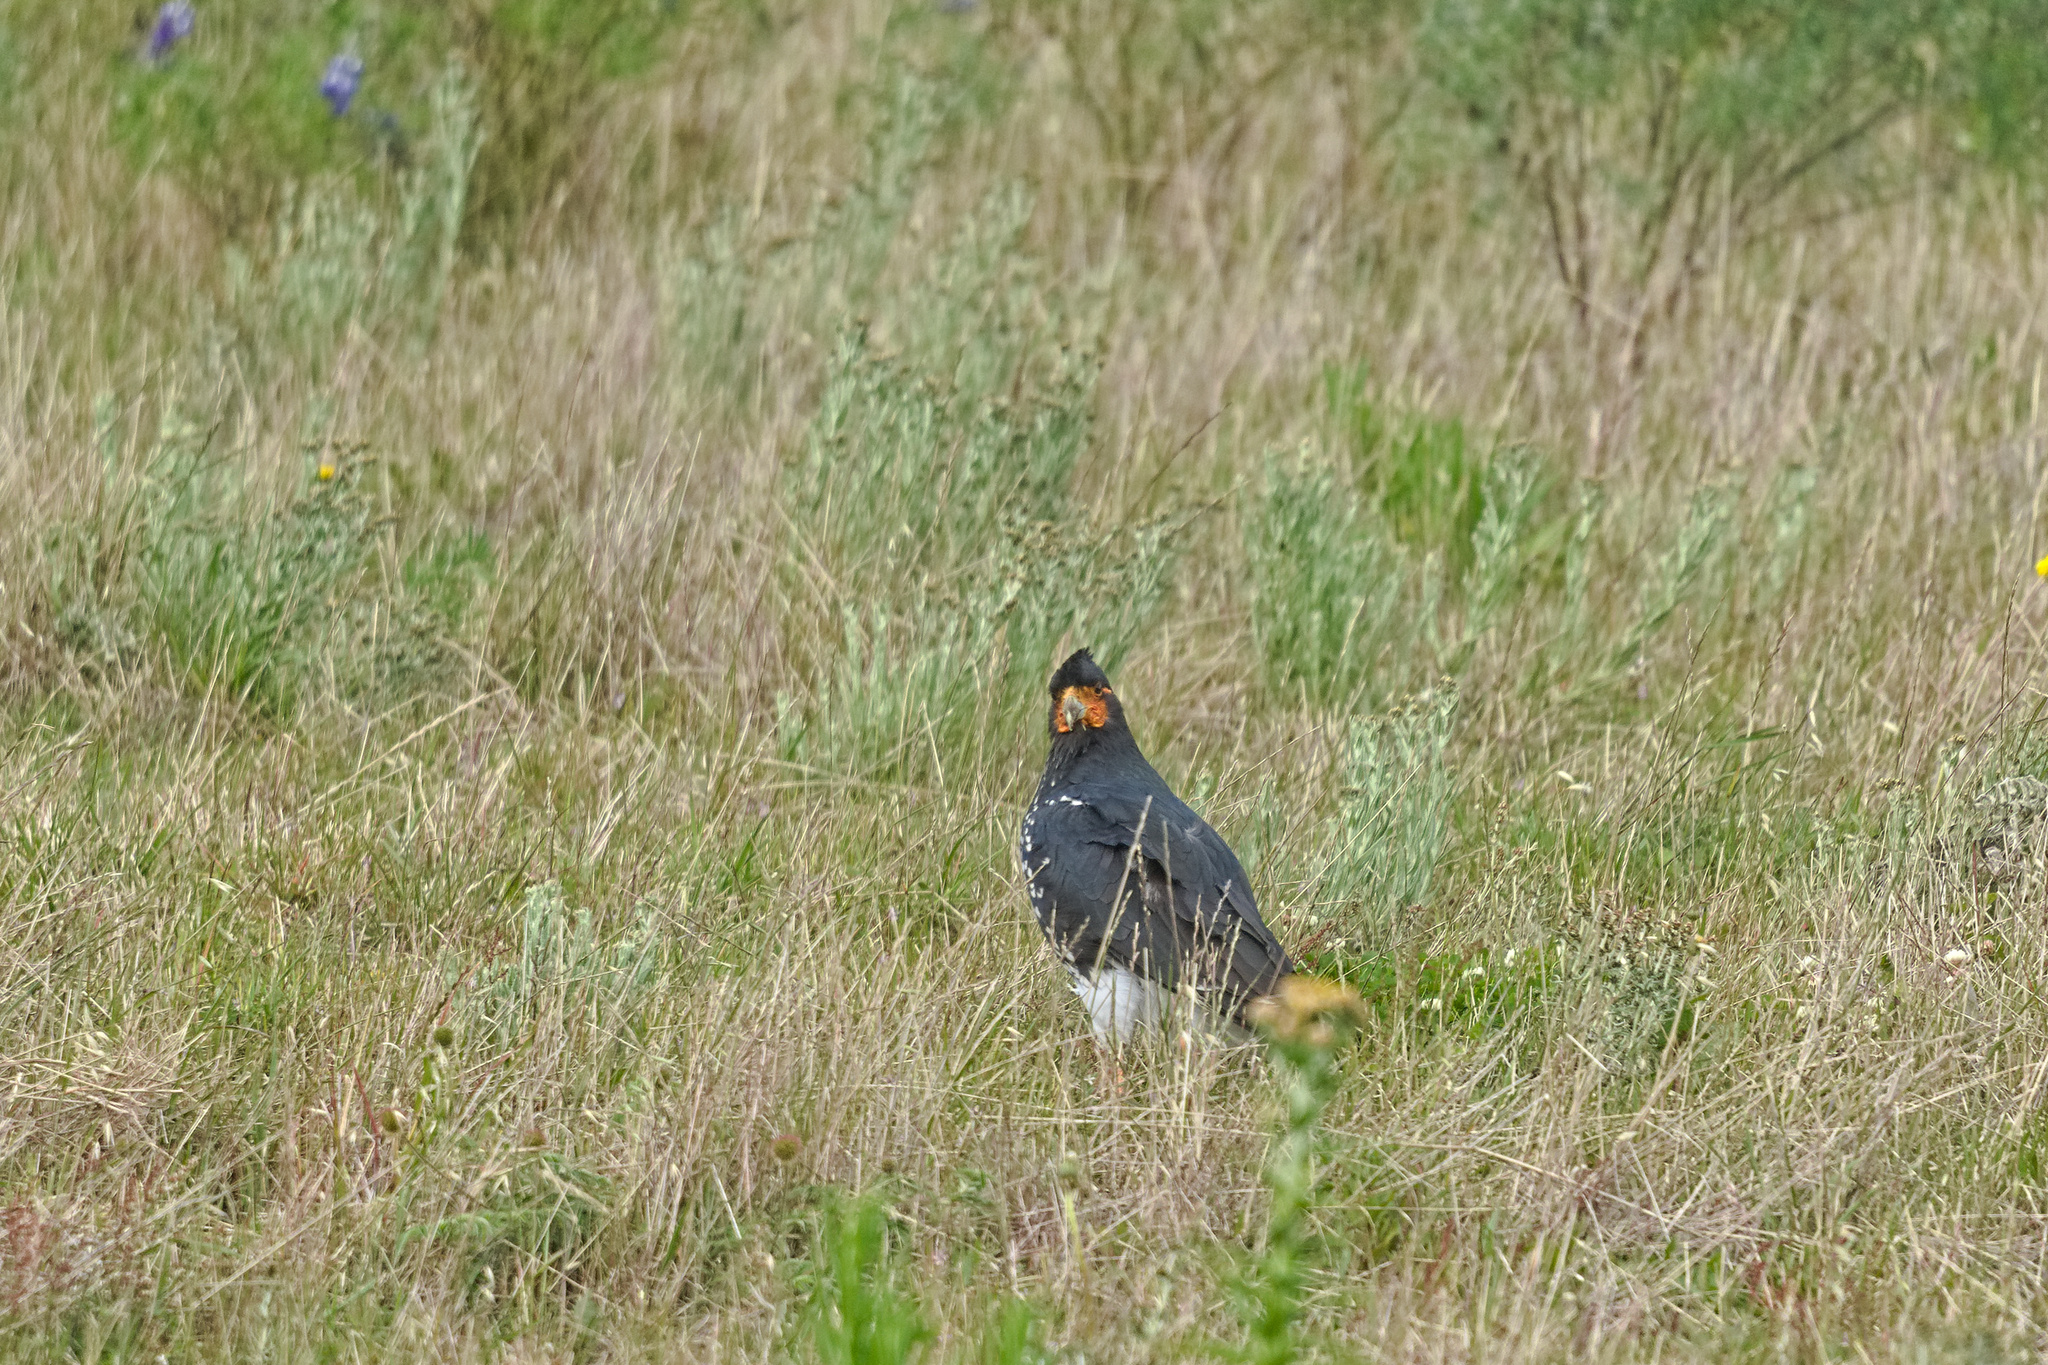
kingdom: Animalia
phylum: Chordata
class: Aves
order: Falconiformes
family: Falconidae
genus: Daptrius
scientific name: Daptrius
